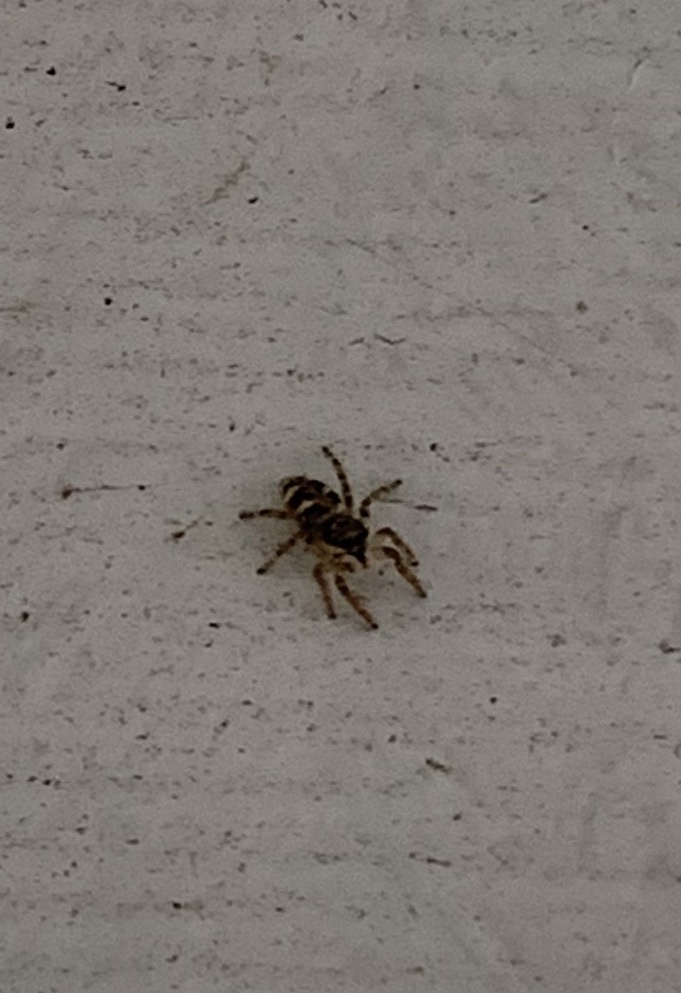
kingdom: Animalia
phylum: Arthropoda
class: Arachnida
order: Araneae
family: Salticidae
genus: Salticus
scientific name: Salticus scenicus
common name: Zebra jumper
